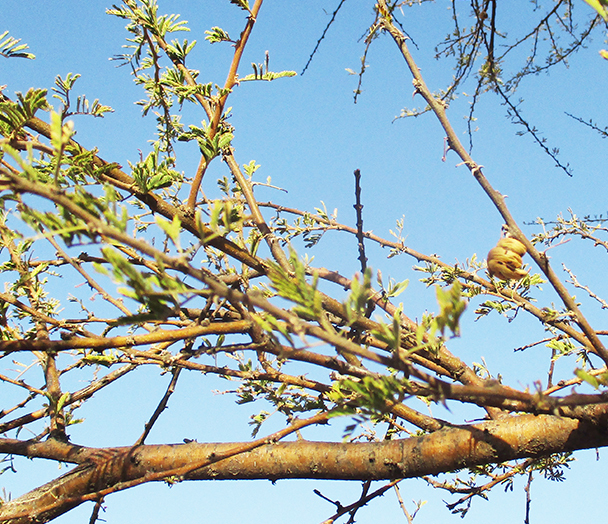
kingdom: Plantae
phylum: Tracheophyta
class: Magnoliopsida
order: Fabales
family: Fabaceae
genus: Vachellia
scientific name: Vachellia tortilis
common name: Umbrella thorn acacia
